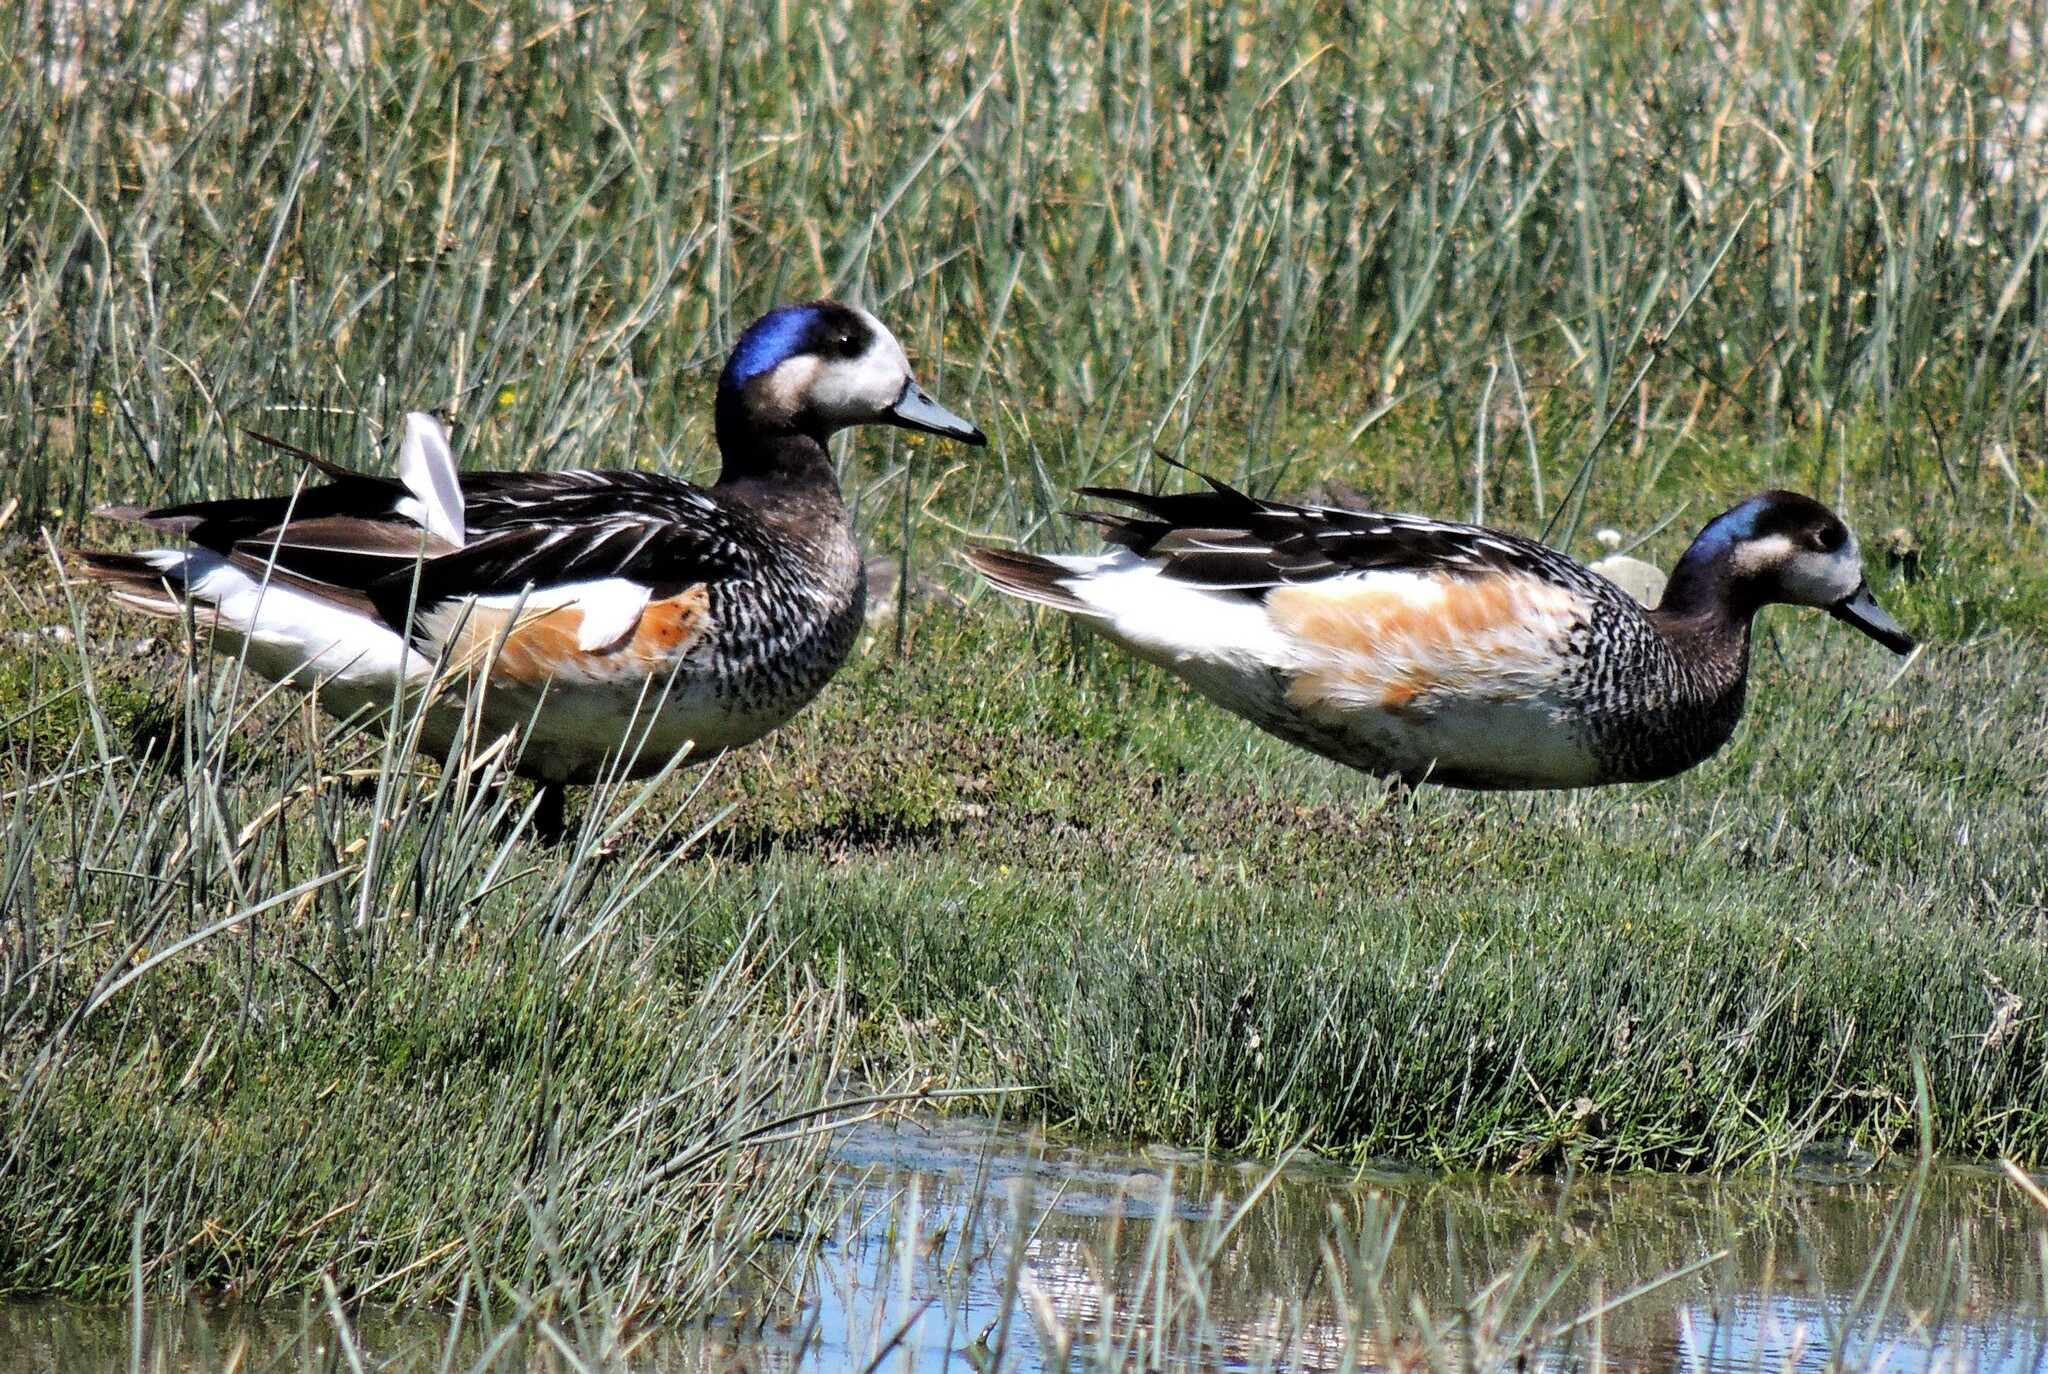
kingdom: Animalia
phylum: Chordata
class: Aves
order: Anseriformes
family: Anatidae
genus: Mareca
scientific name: Mareca sibilatrix
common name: Chiloe wigeon
